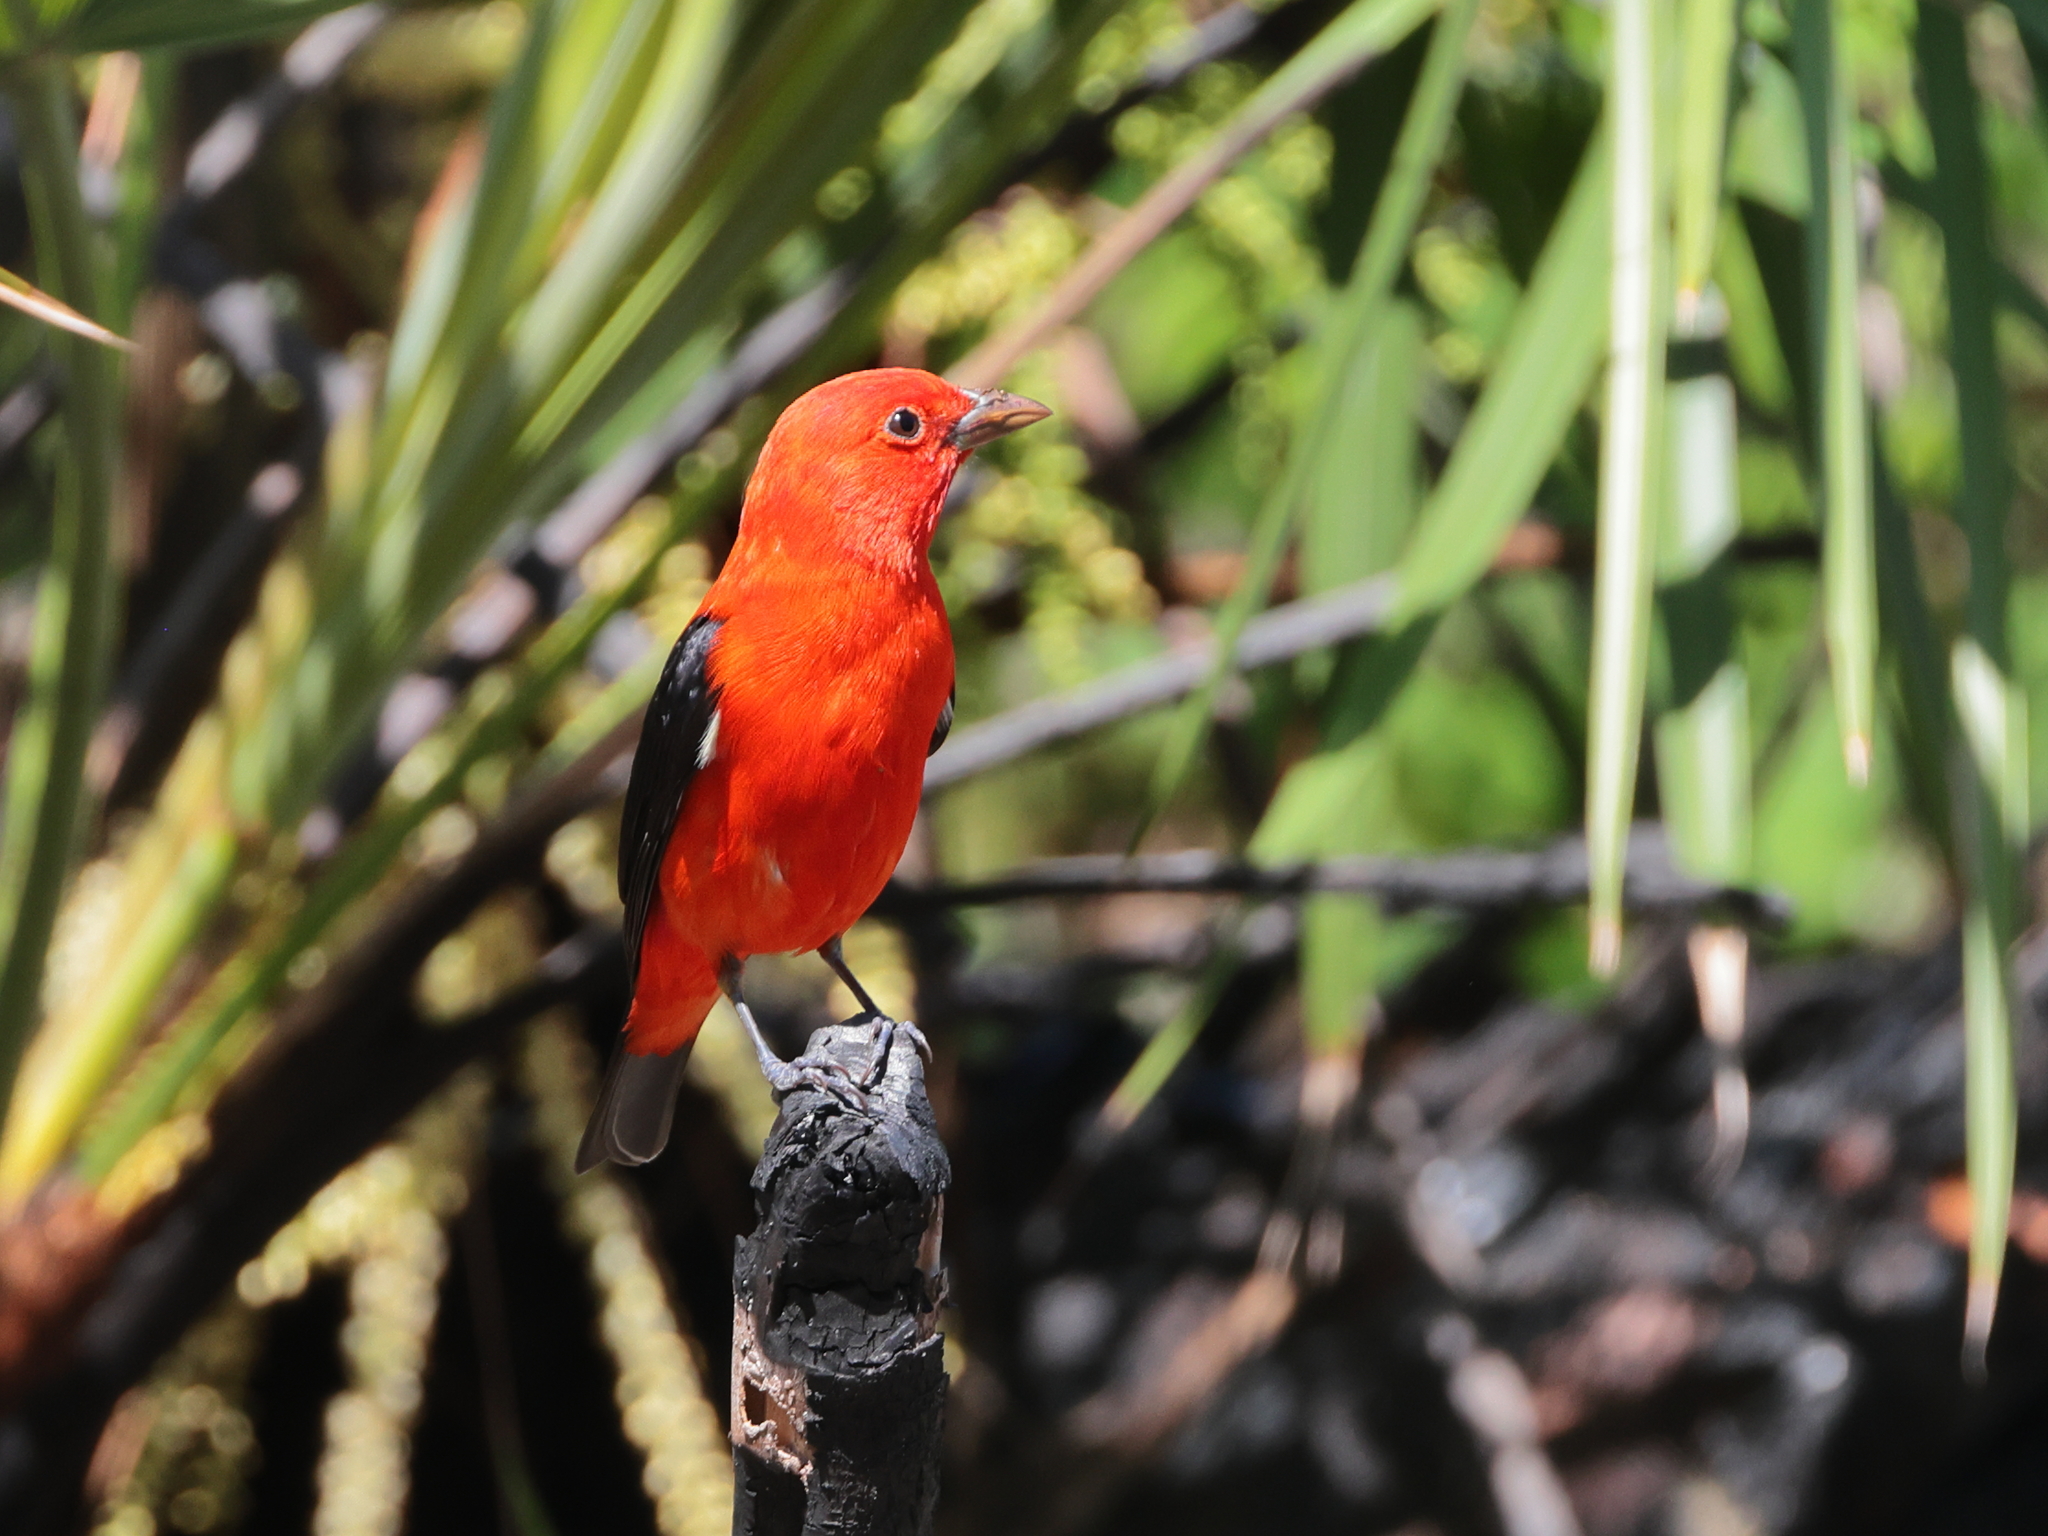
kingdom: Animalia
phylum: Chordata
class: Aves
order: Passeriformes
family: Cardinalidae
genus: Piranga
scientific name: Piranga olivacea
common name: Scarlet tanager
